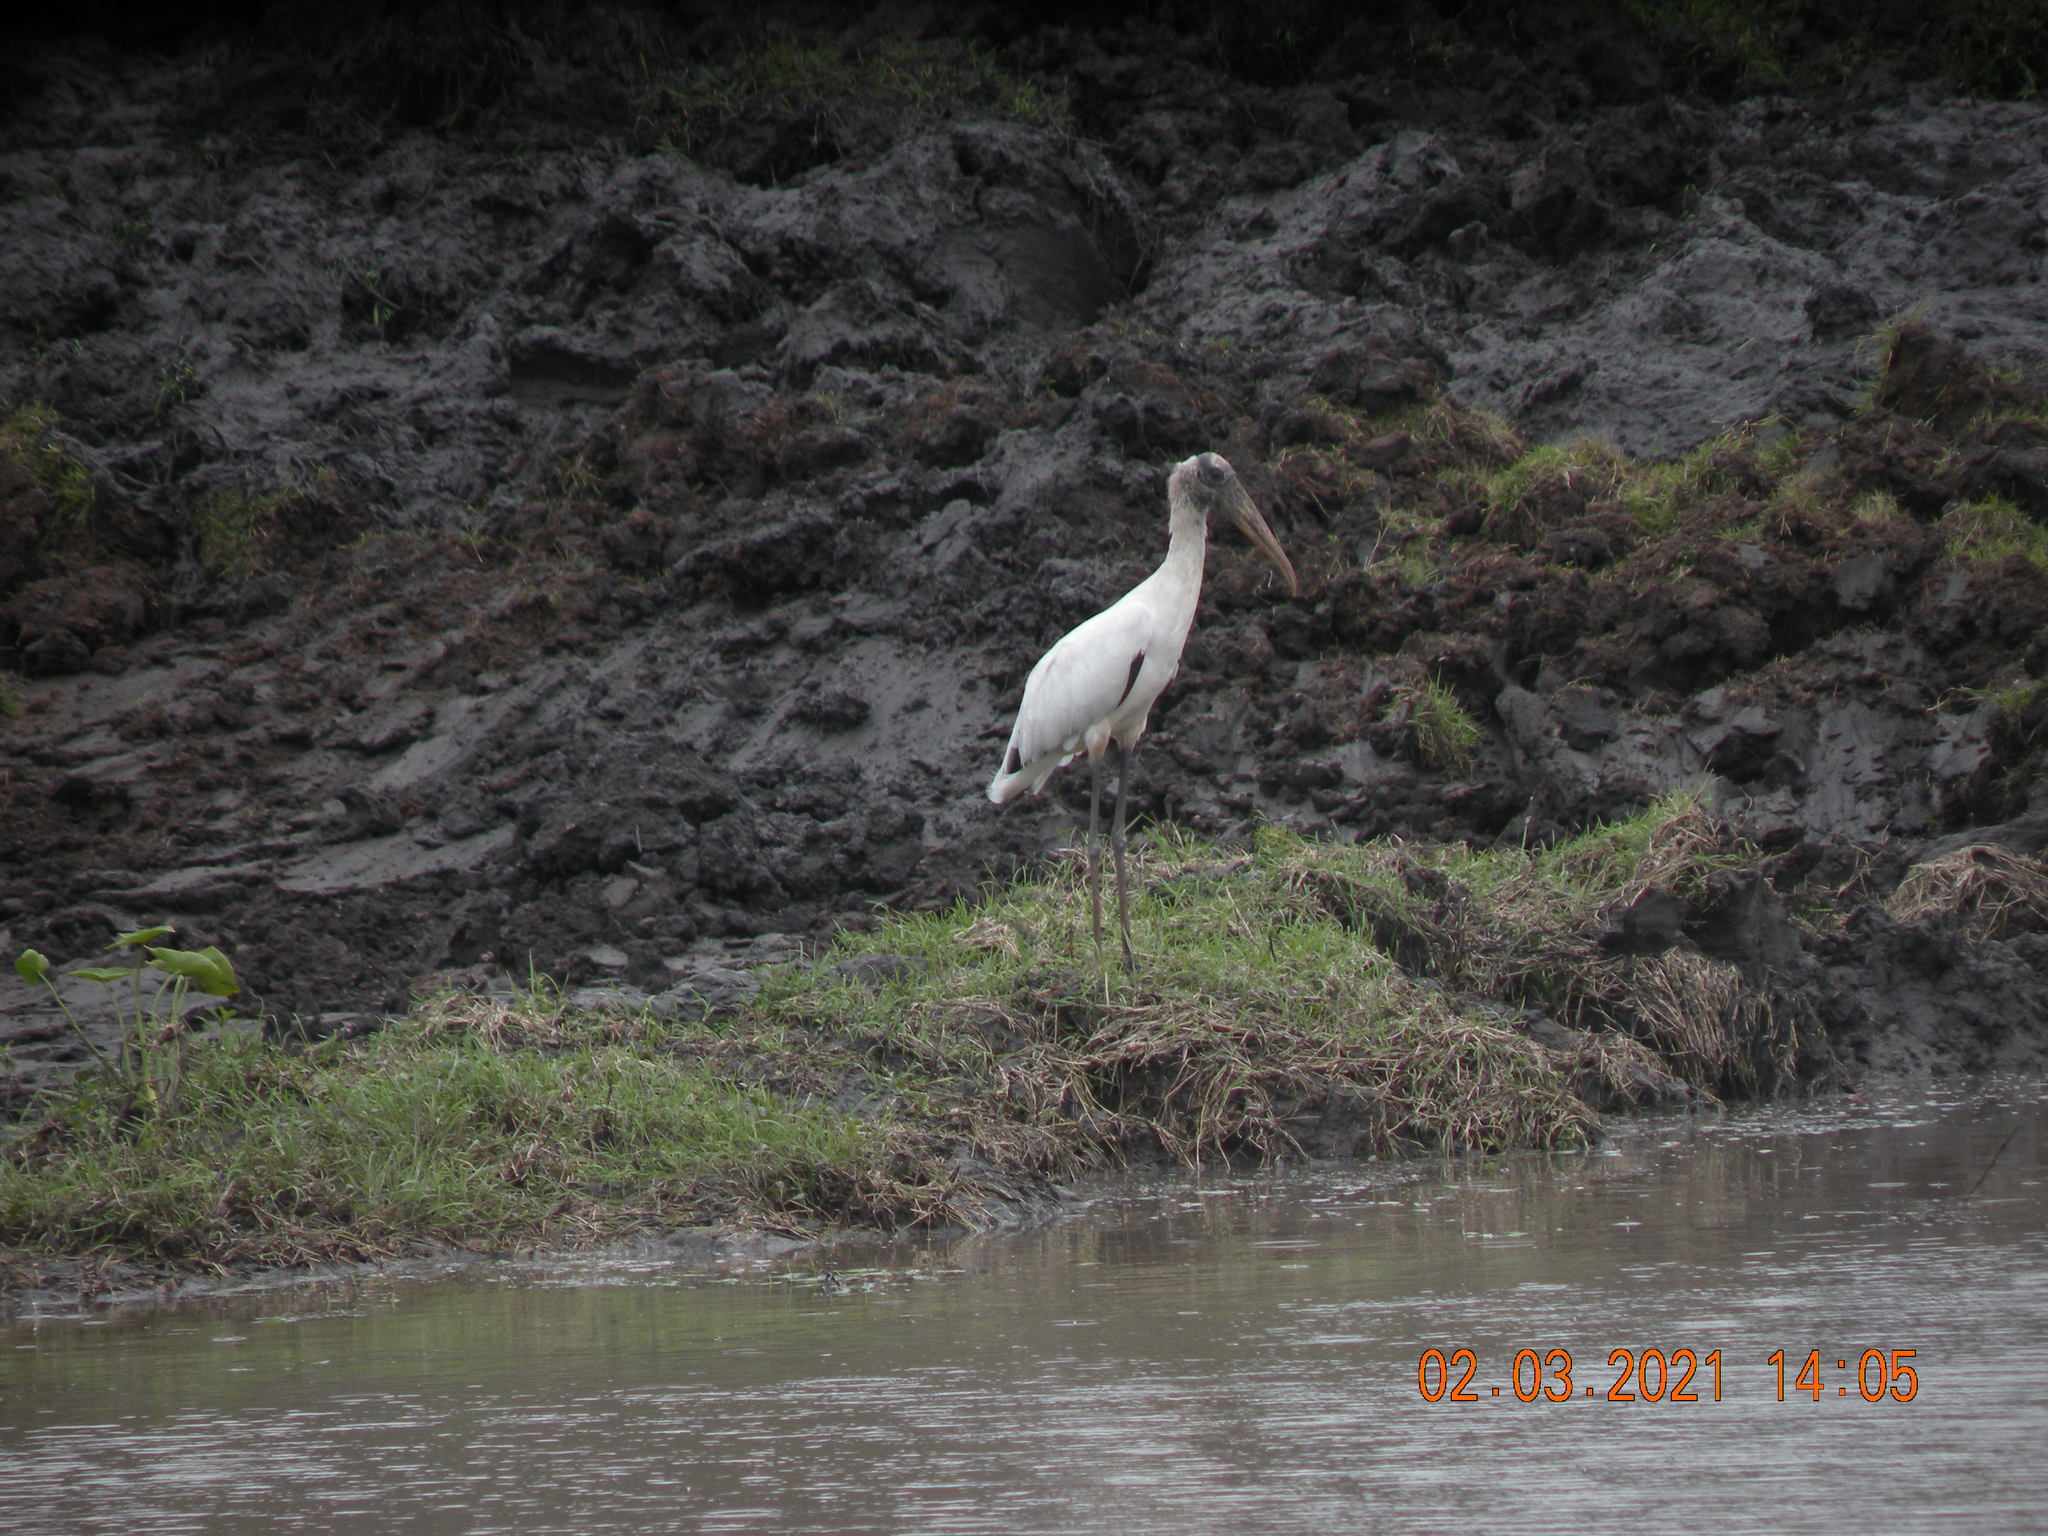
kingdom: Animalia
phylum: Chordata
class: Aves
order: Ciconiiformes
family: Ciconiidae
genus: Mycteria
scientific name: Mycteria americana
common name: Wood stork
